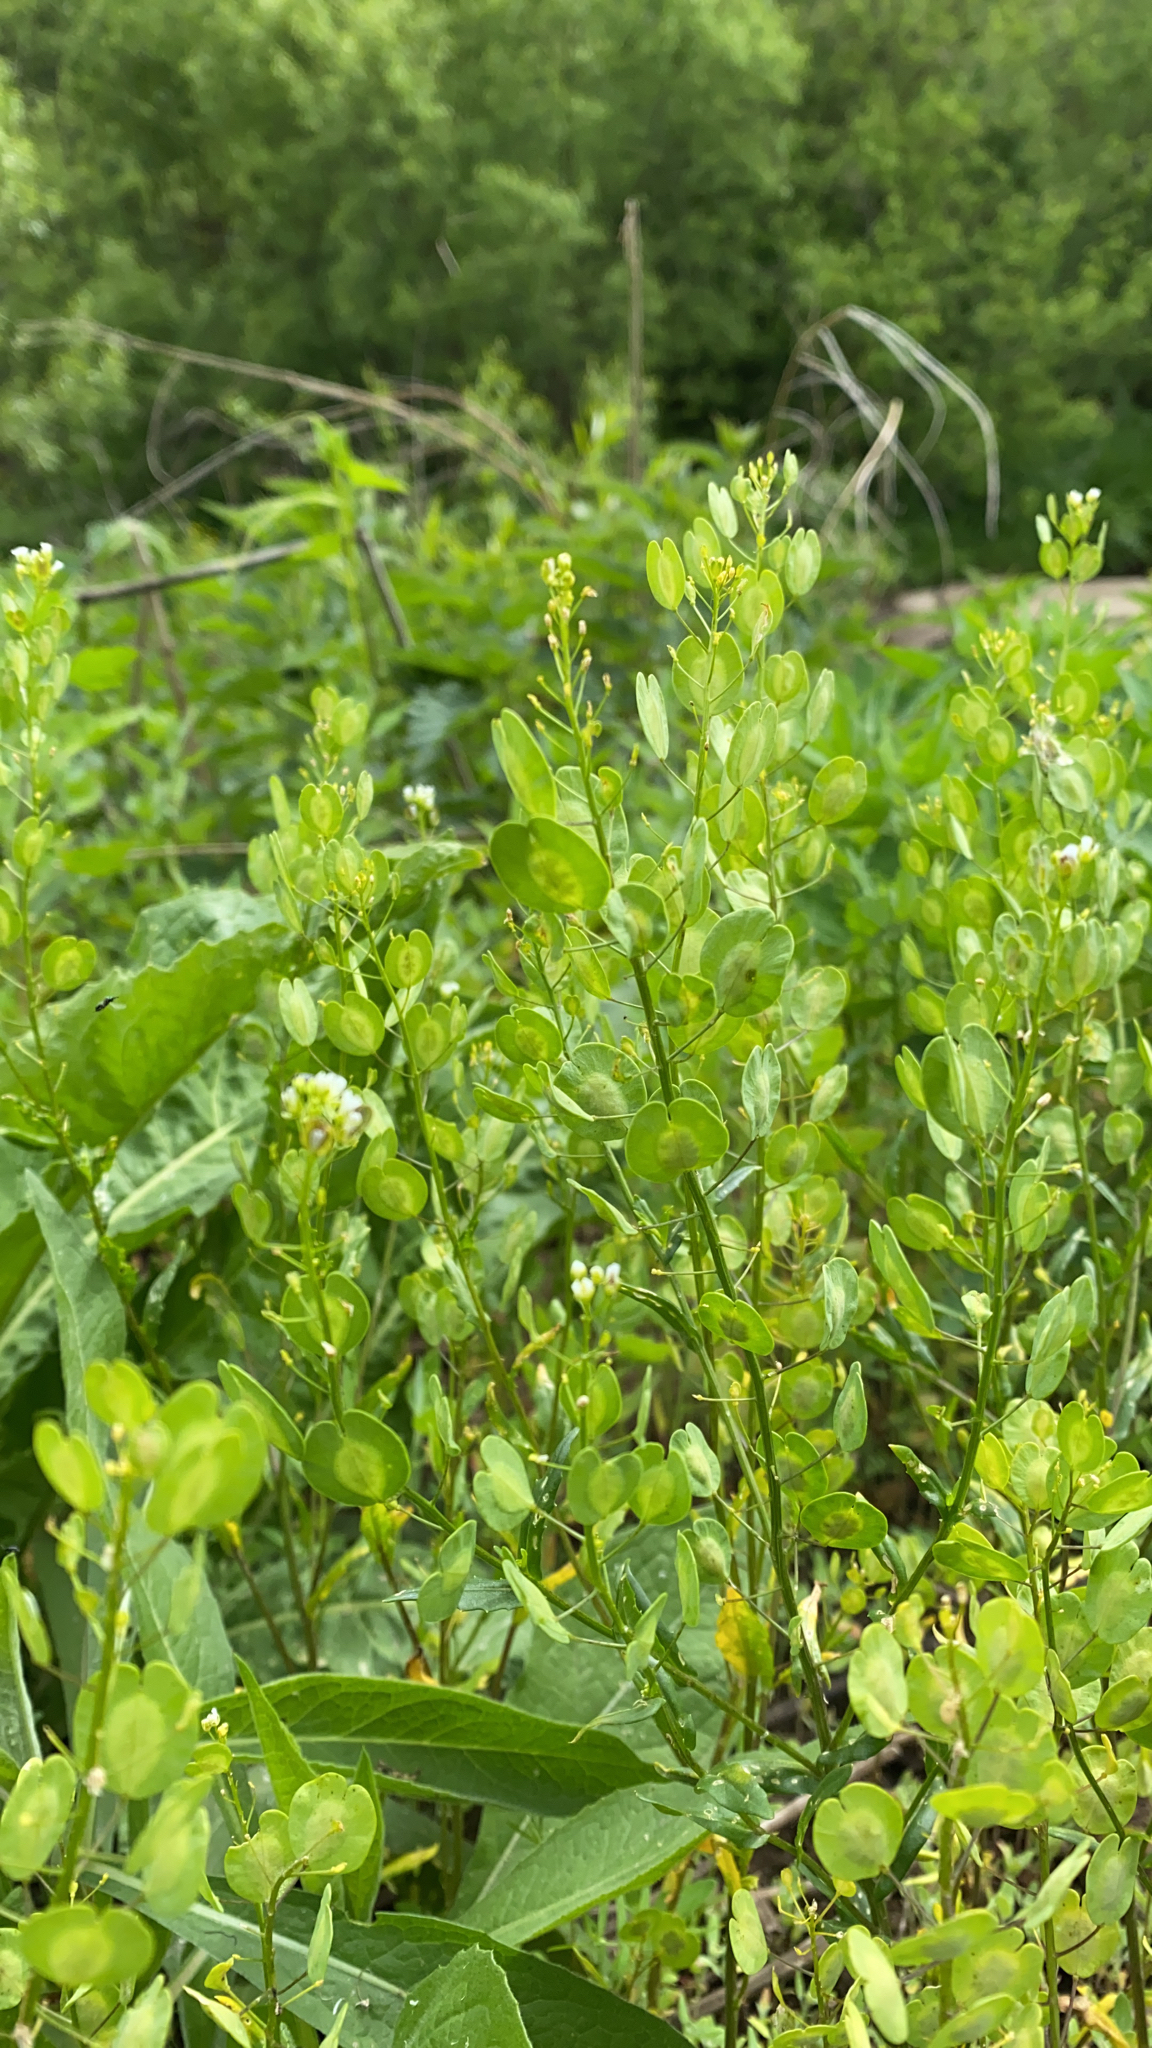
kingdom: Plantae
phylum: Tracheophyta
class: Magnoliopsida
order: Brassicales
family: Brassicaceae
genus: Thlaspi
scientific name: Thlaspi arvense
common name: Field pennycress
